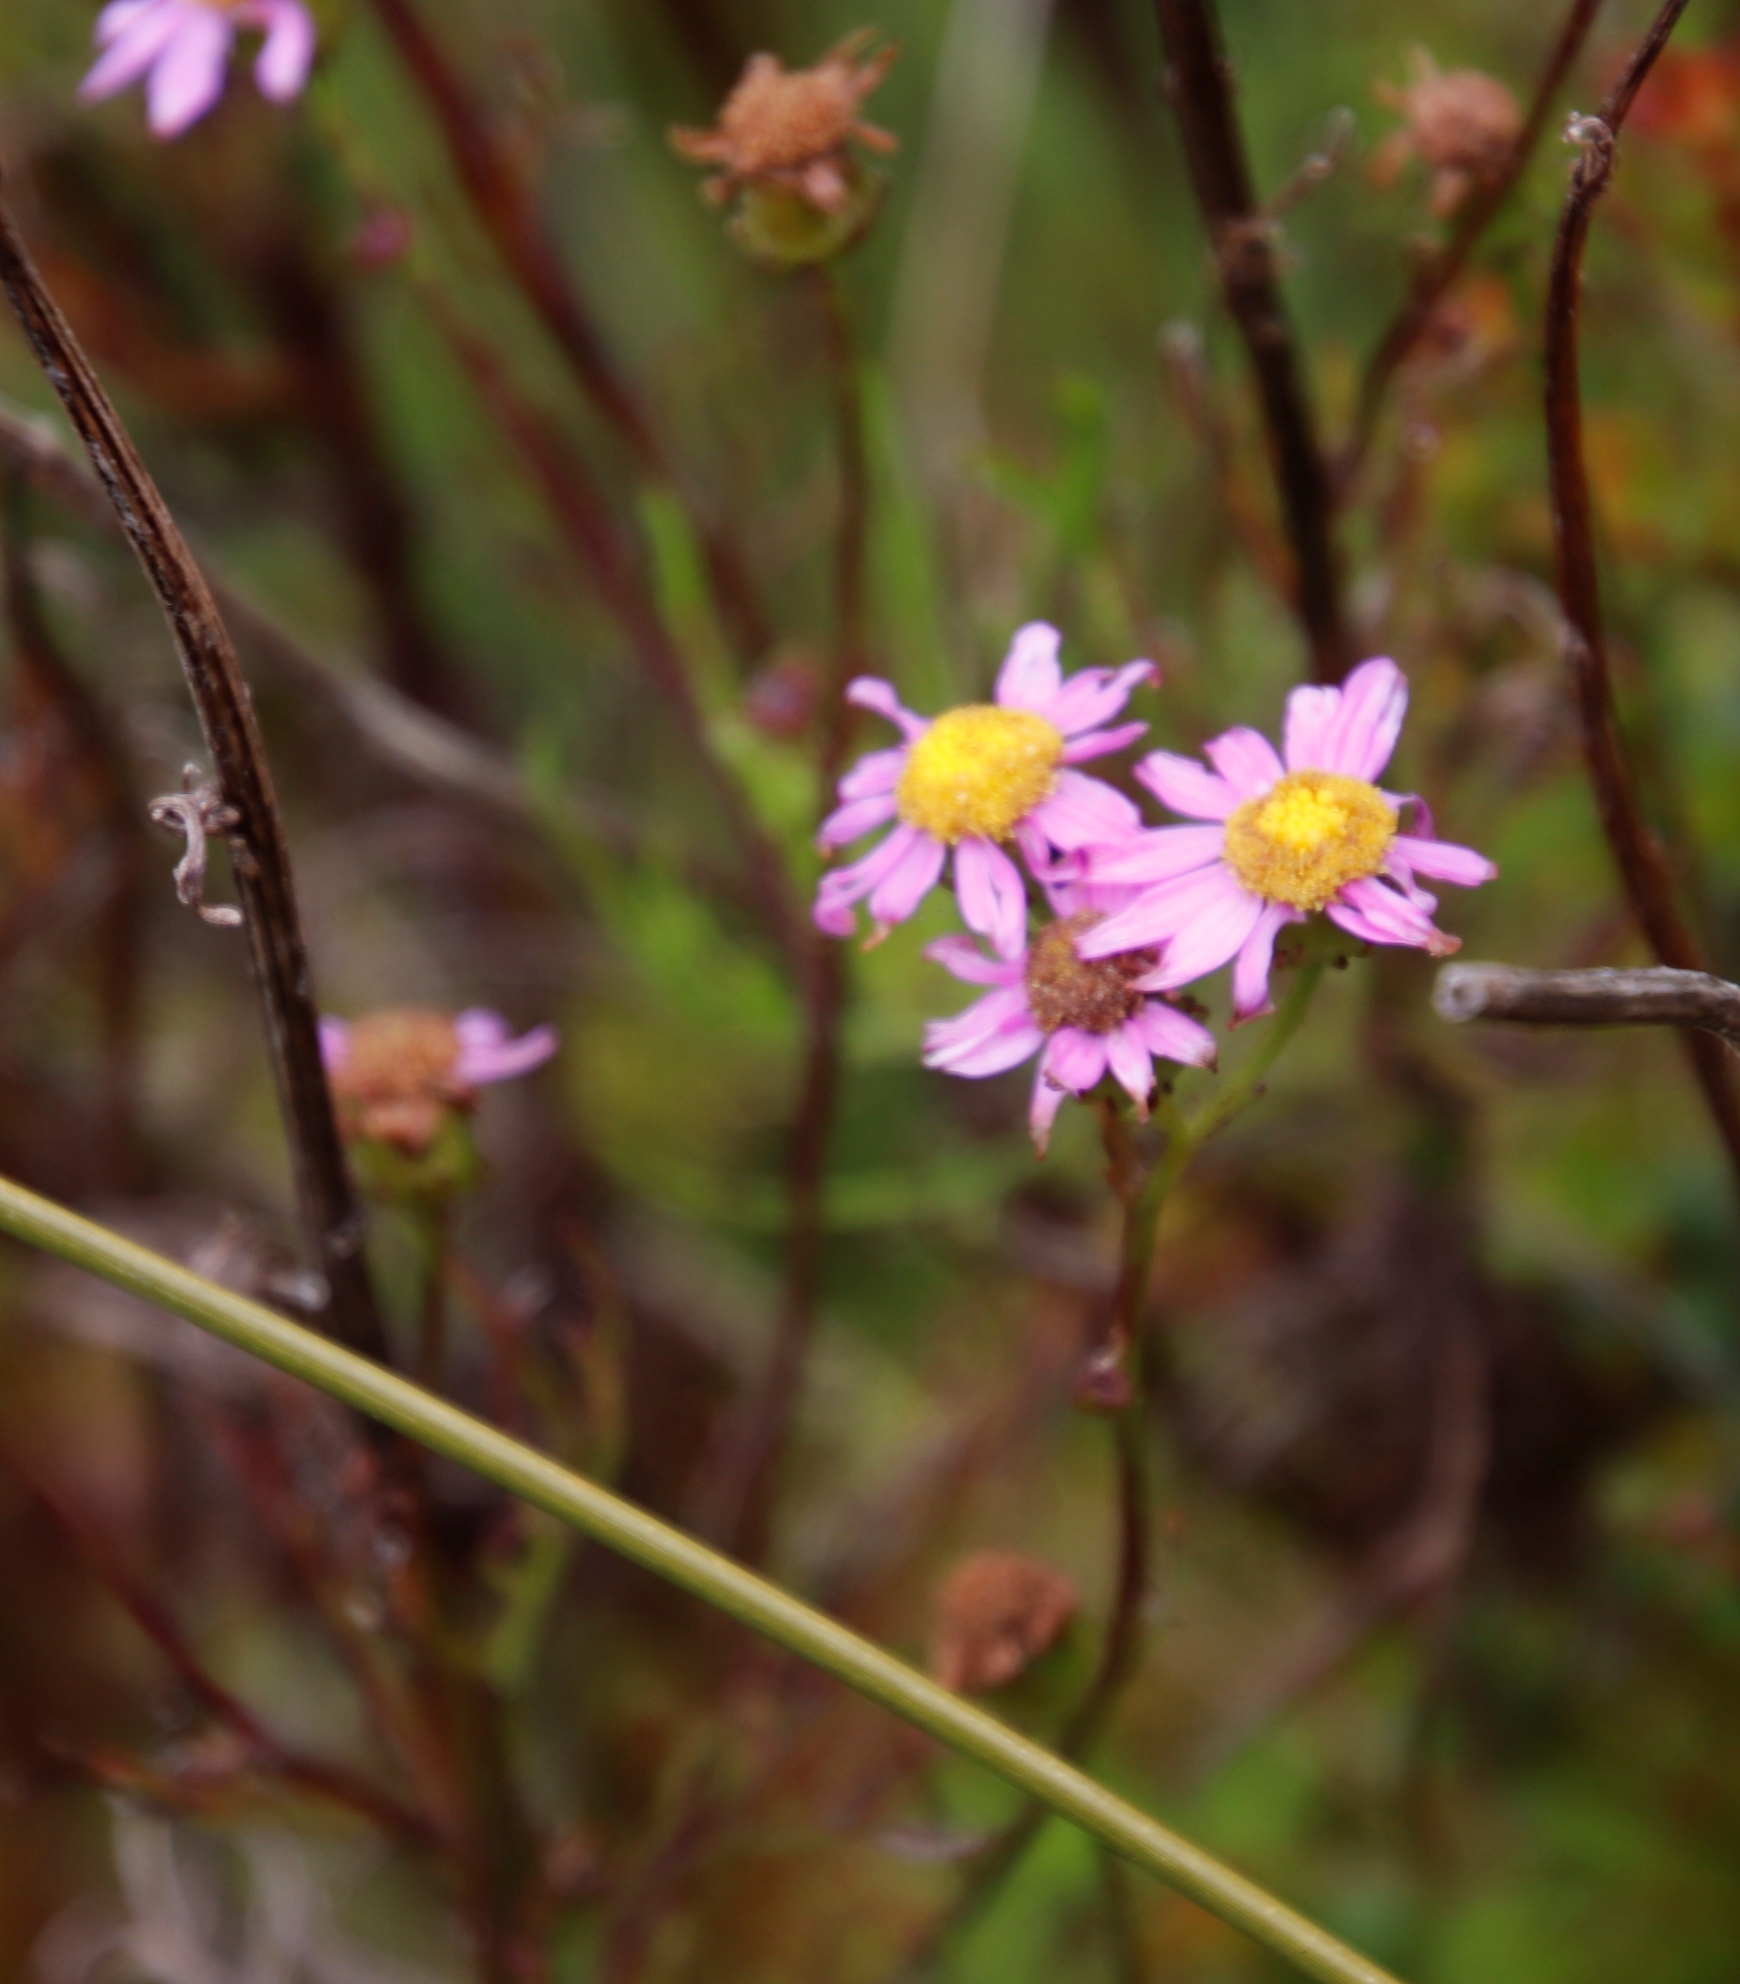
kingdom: Plantae
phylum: Tracheophyta
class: Magnoliopsida
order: Asterales
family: Asteraceae
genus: Senecio
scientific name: Senecio umbellatus
